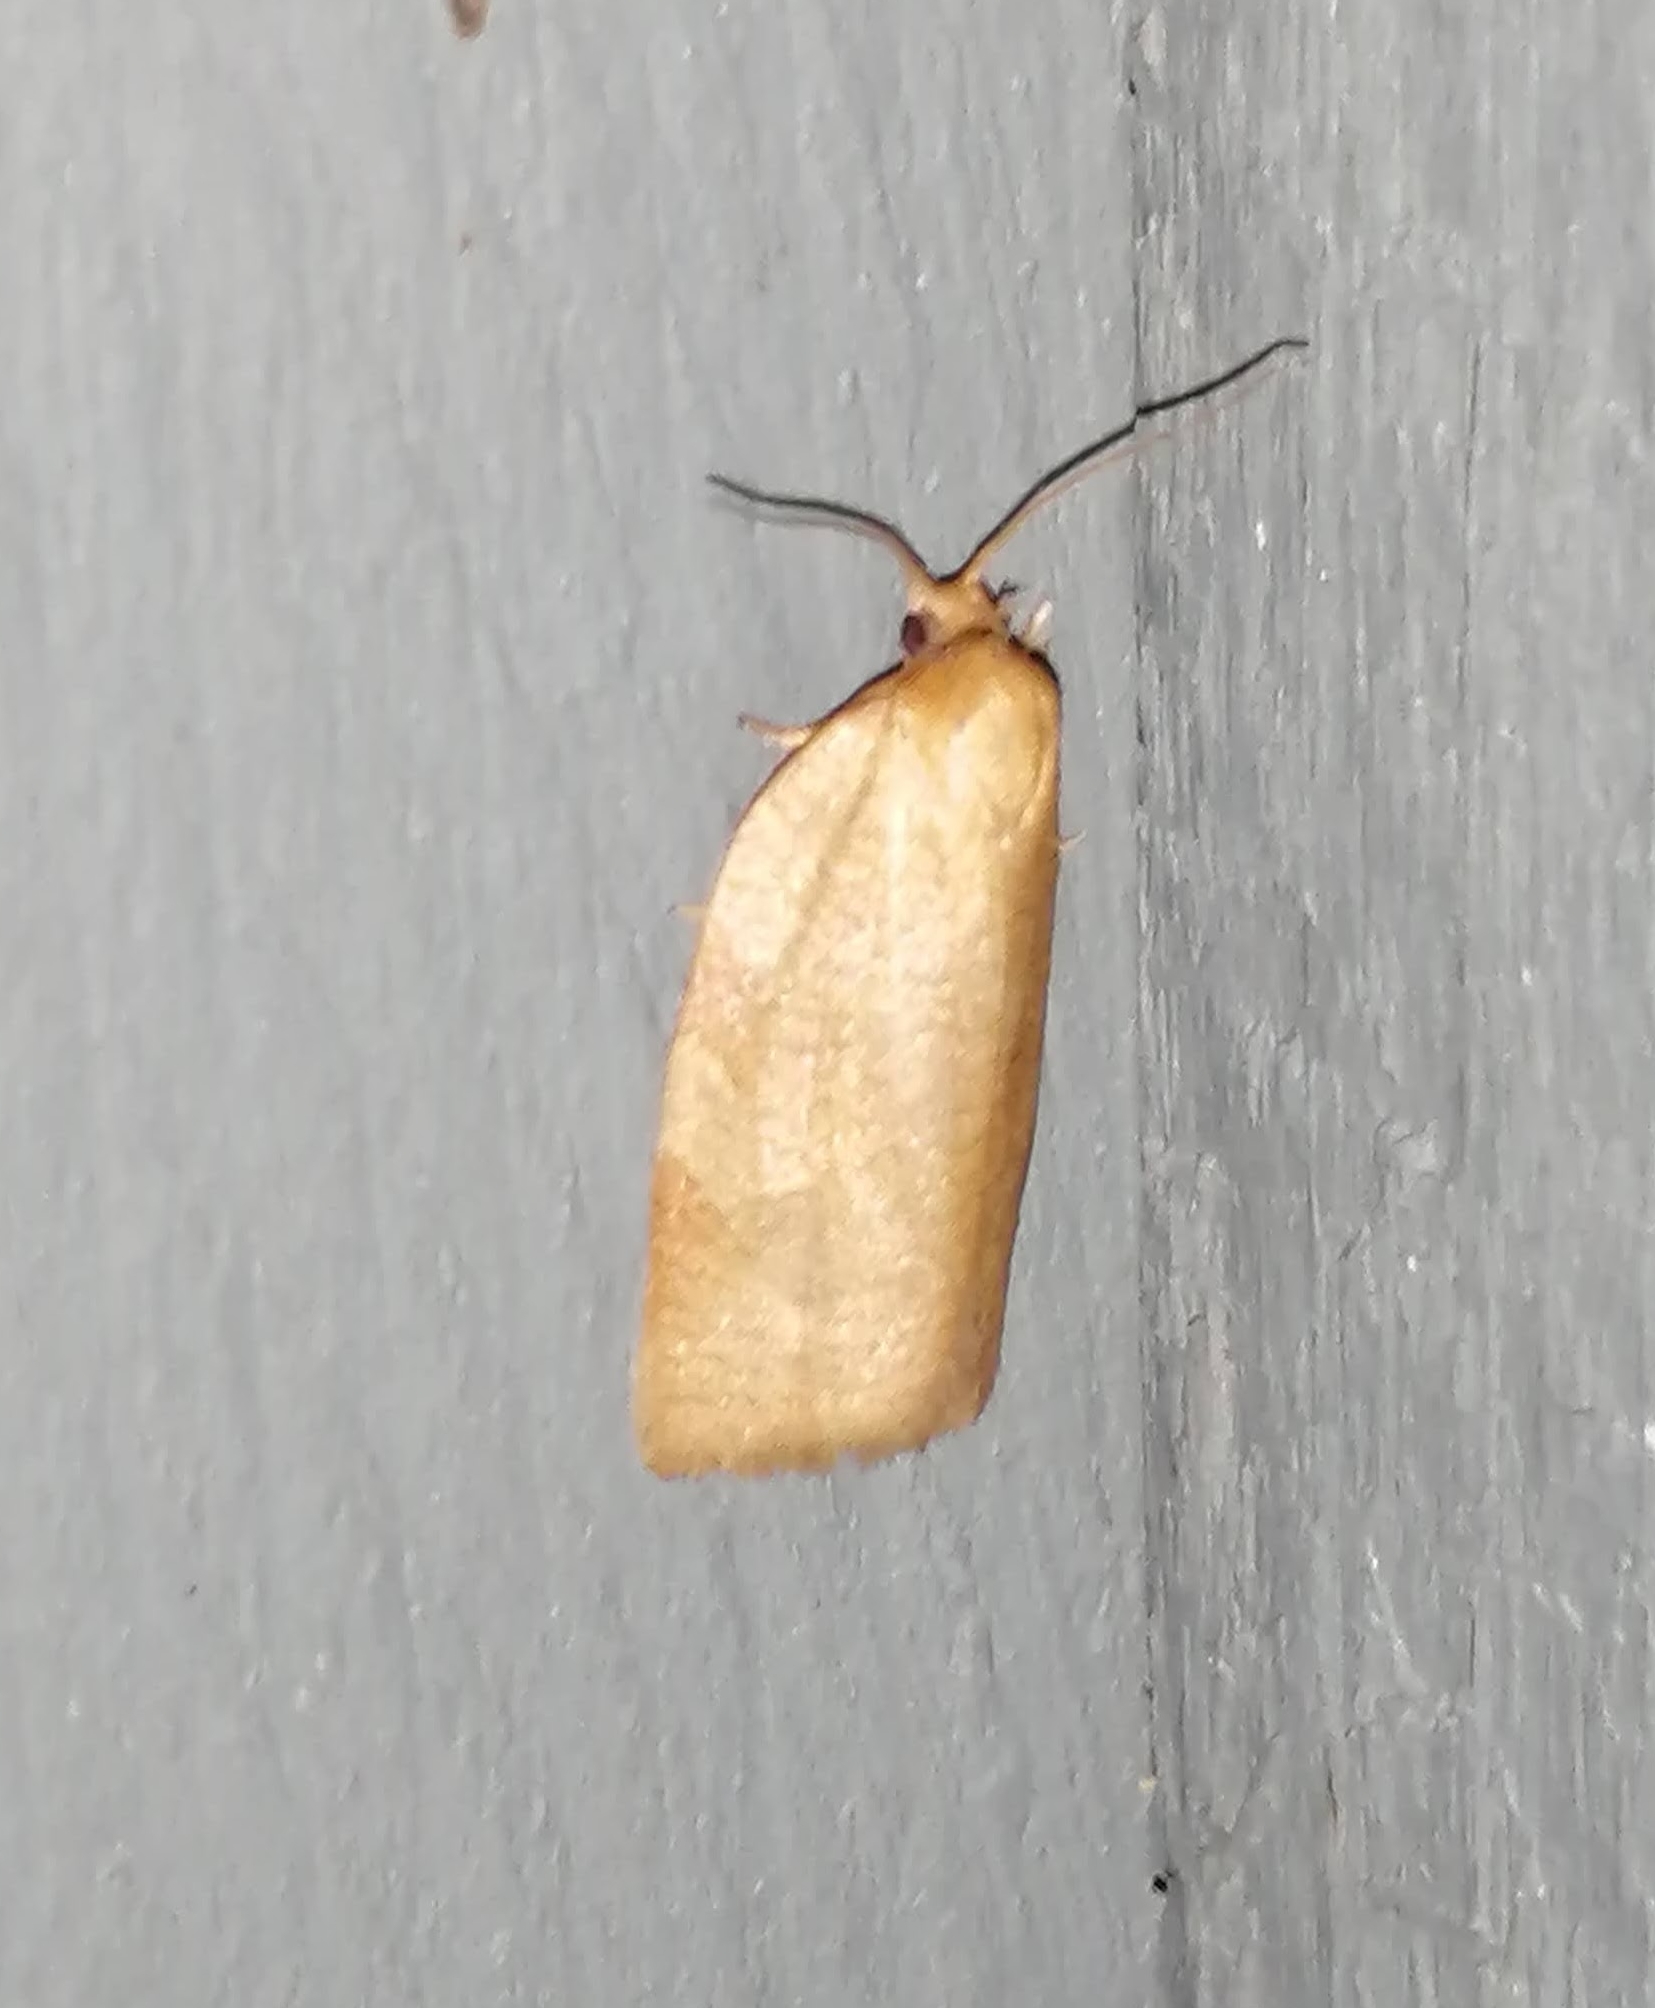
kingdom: Animalia
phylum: Arthropoda
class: Insecta
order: Lepidoptera
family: Tortricidae
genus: Aphelia
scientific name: Aphelia alleniana
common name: Allen's tortrix moth
